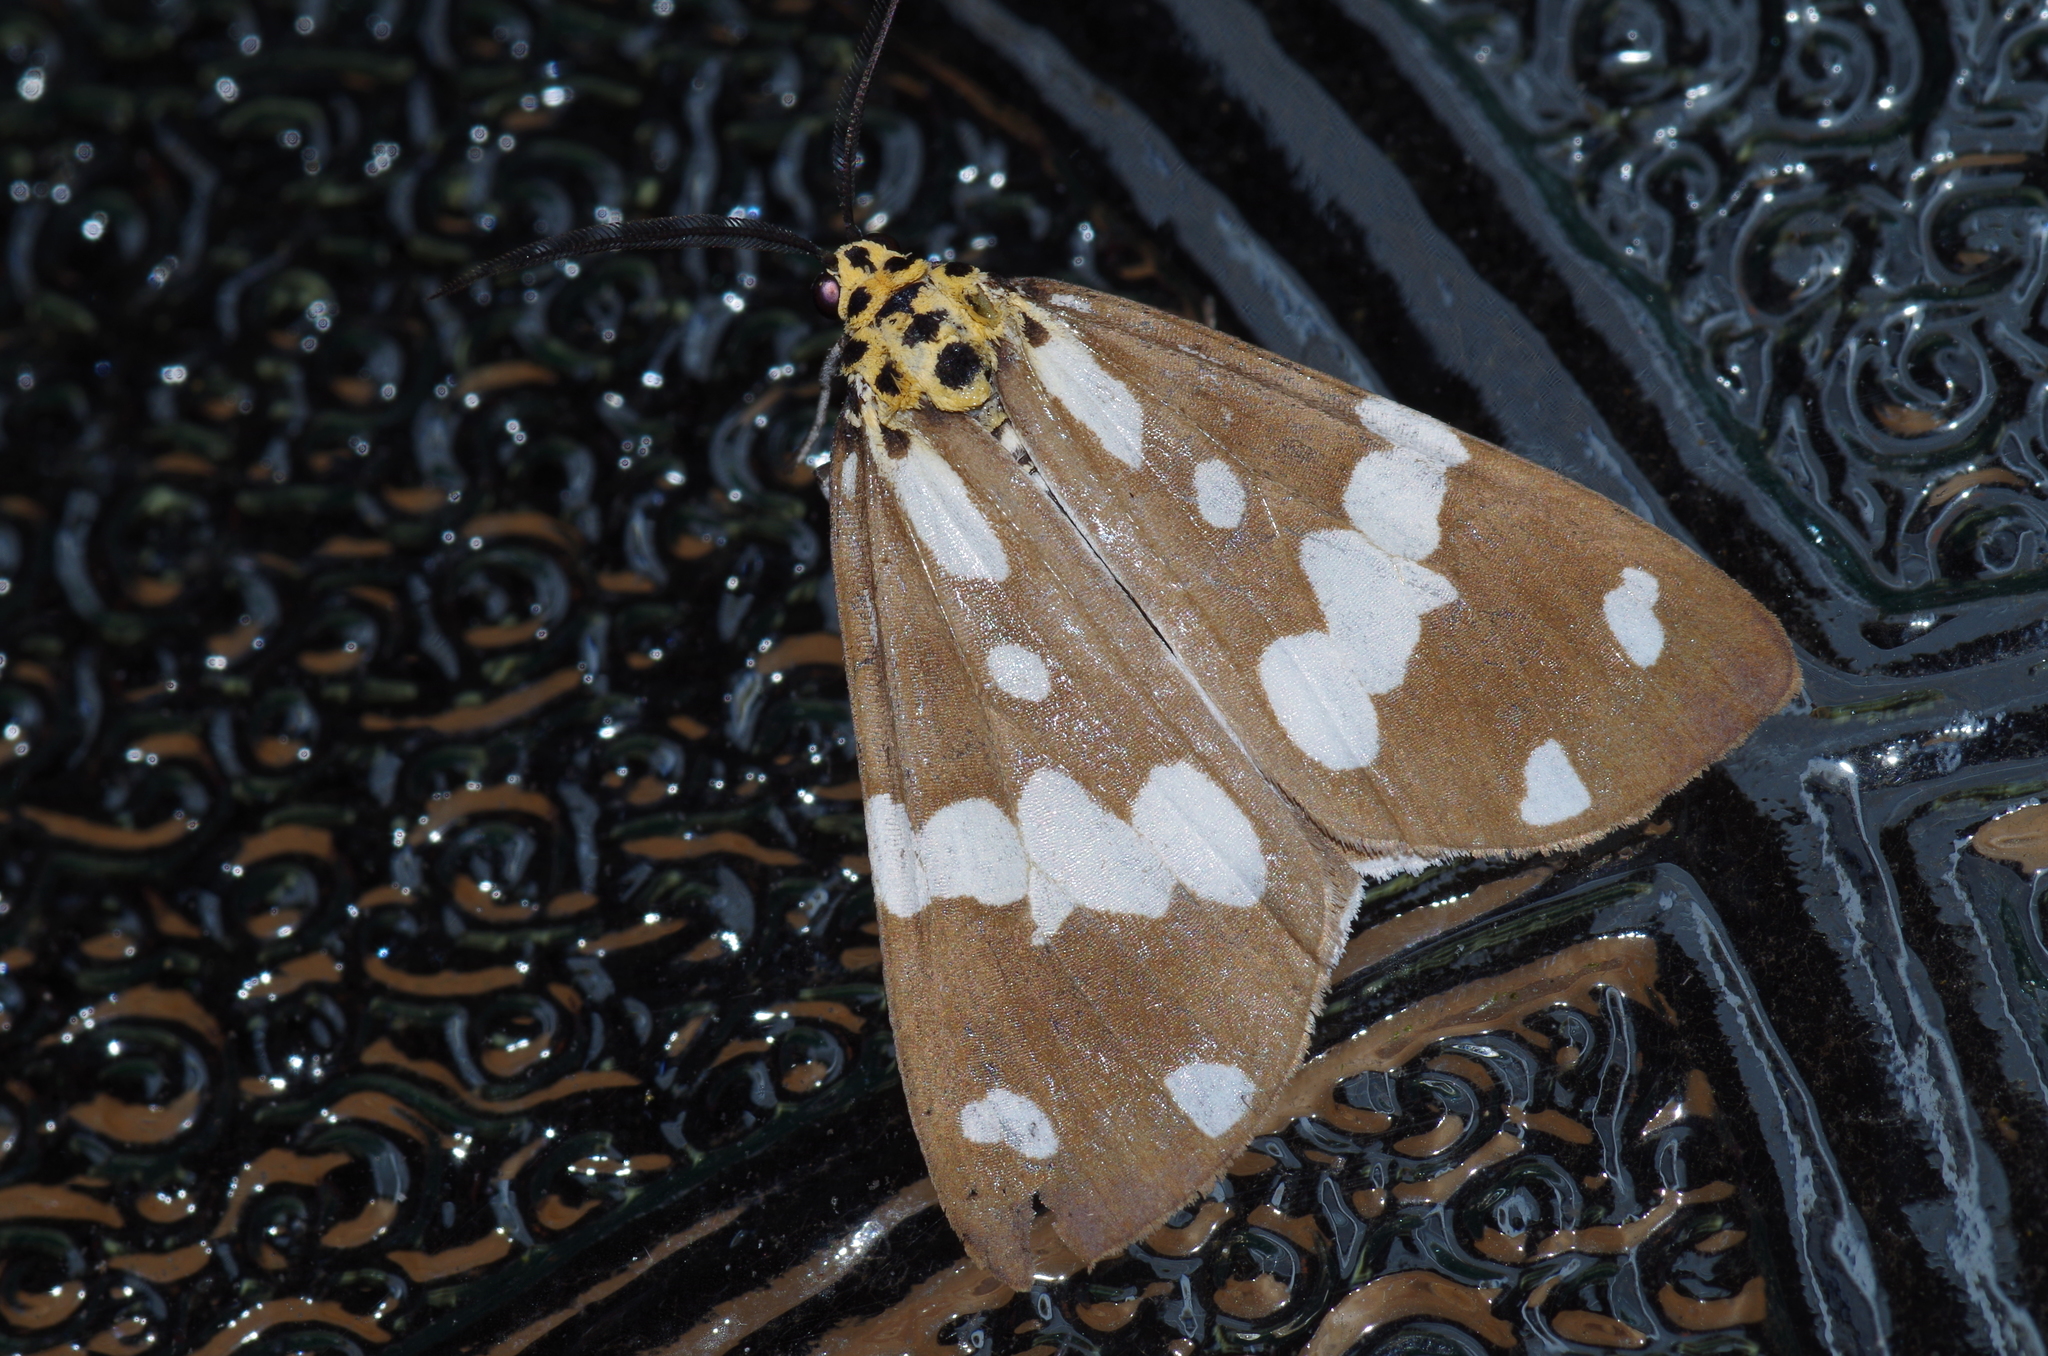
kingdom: Animalia
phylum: Arthropoda
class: Insecta
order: Lepidoptera
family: Erebidae
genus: Utetheisa
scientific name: Utetheisa inconstans
